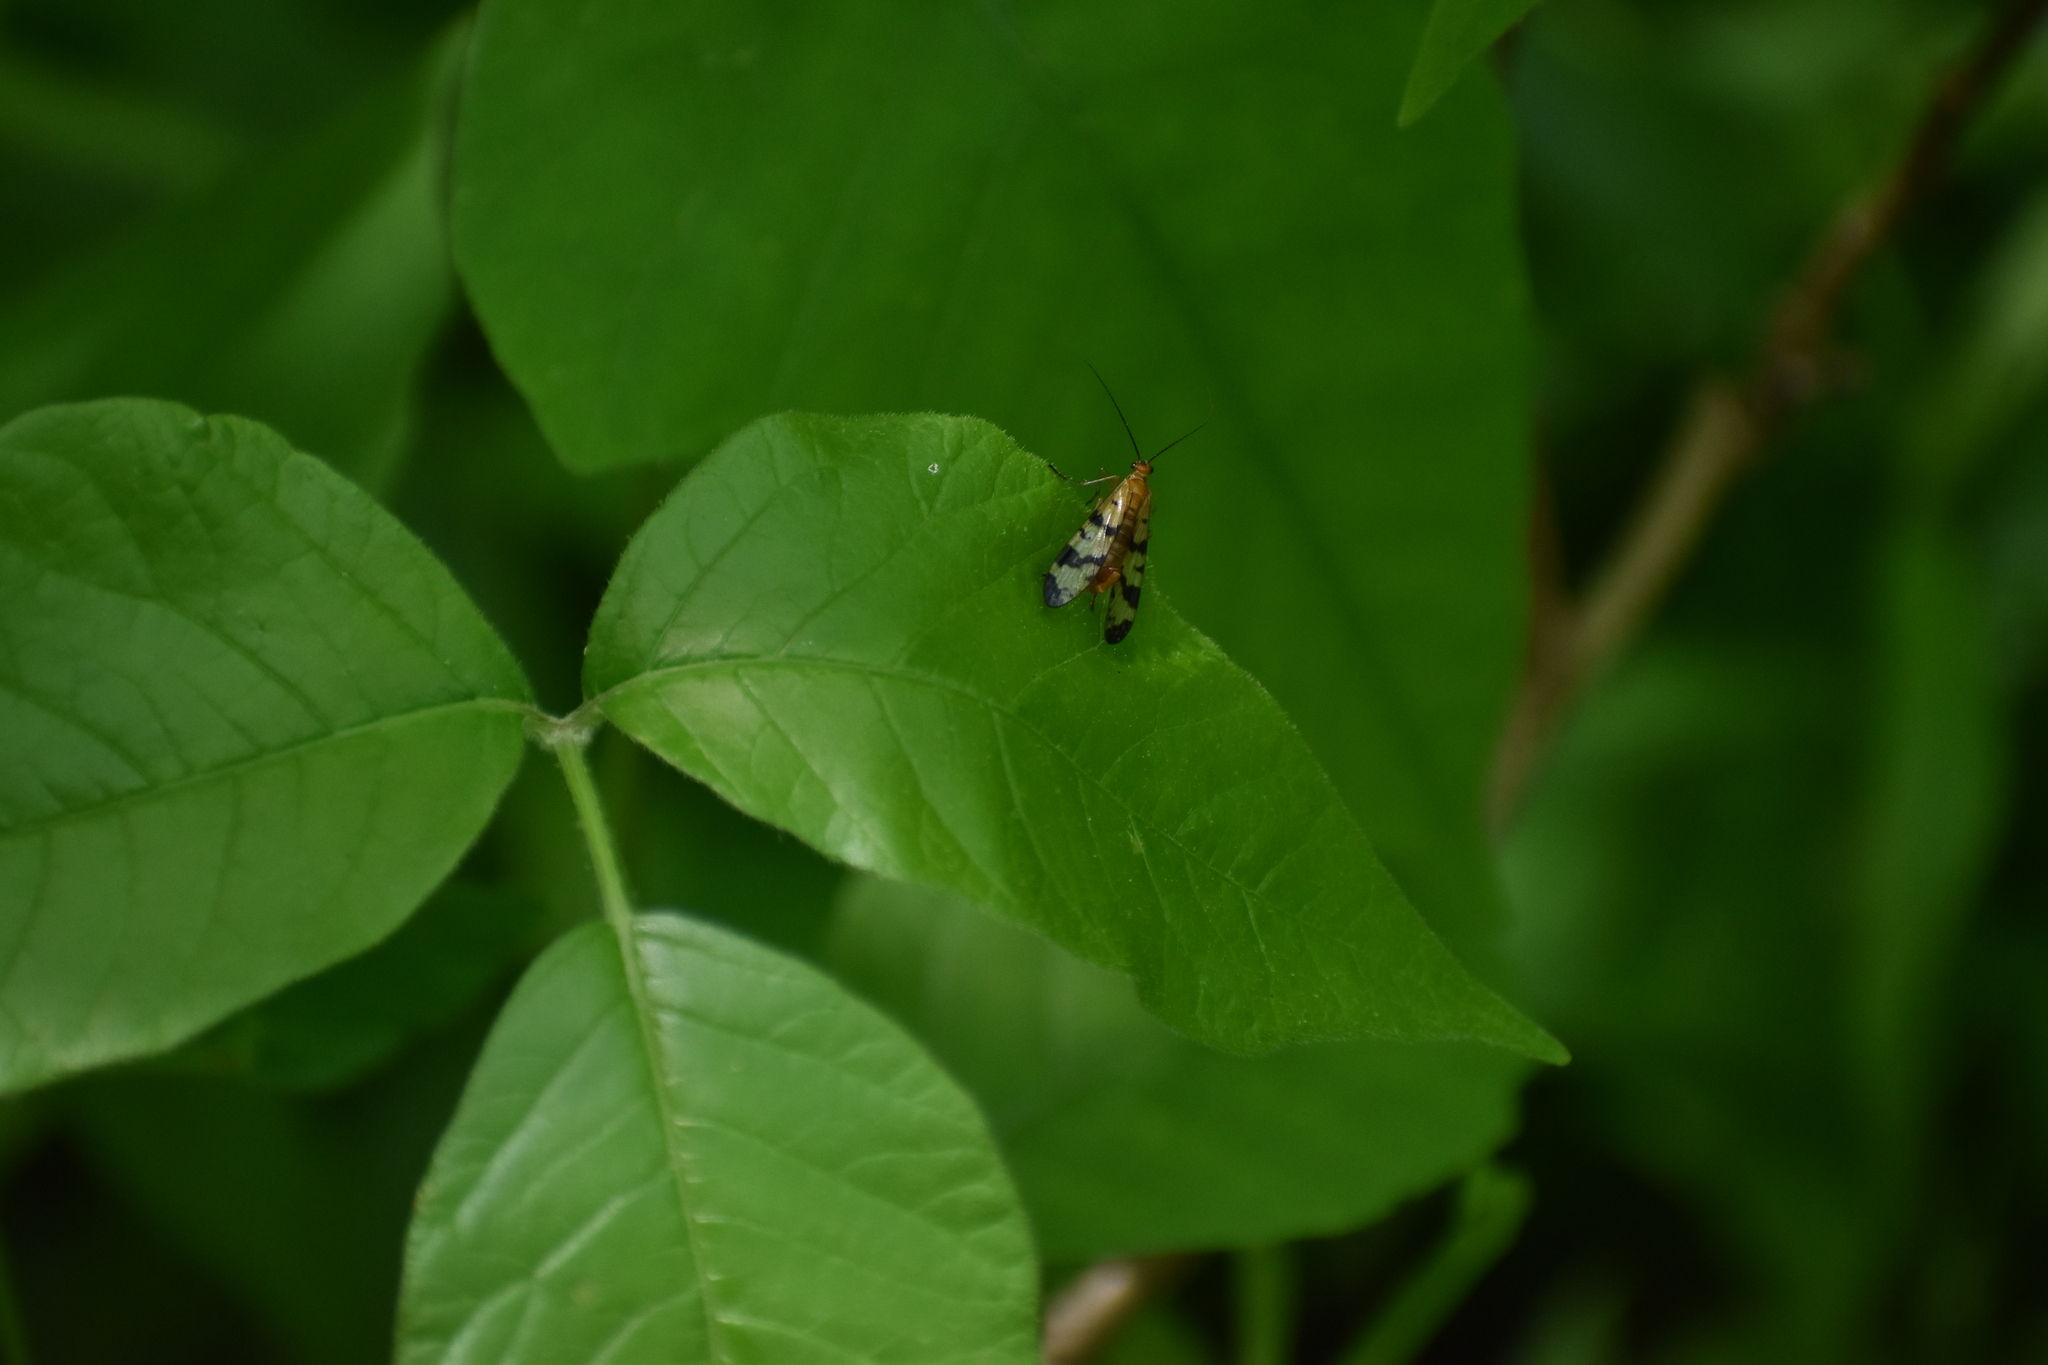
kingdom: Animalia
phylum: Arthropoda
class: Insecta
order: Mecoptera
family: Panorpidae
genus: Panorpa
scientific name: Panorpa subfurcata
